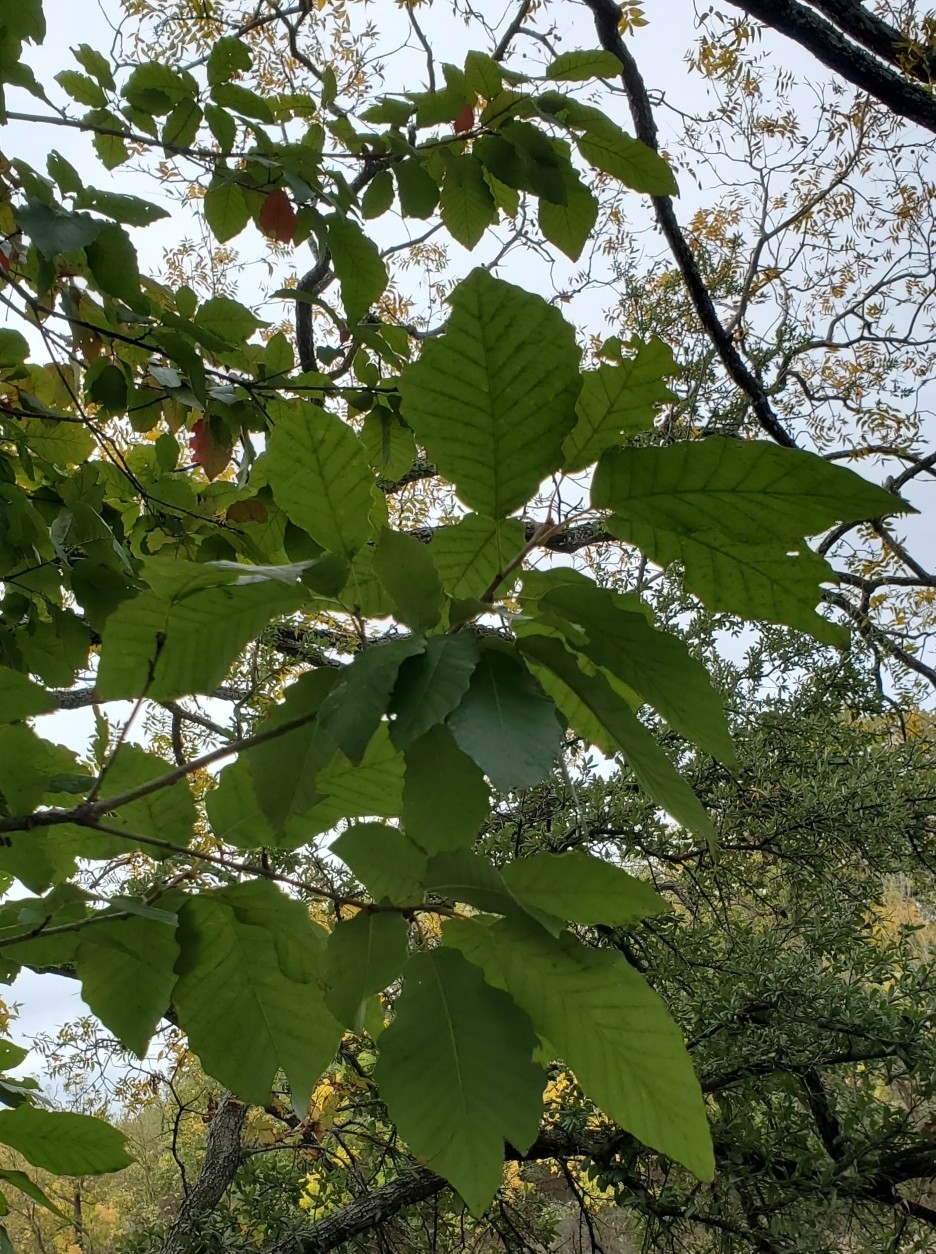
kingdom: Plantae
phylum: Tracheophyta
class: Magnoliopsida
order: Fagales
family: Fagaceae
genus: Quercus
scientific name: Quercus muehlenbergii
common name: Chinkapin oak
